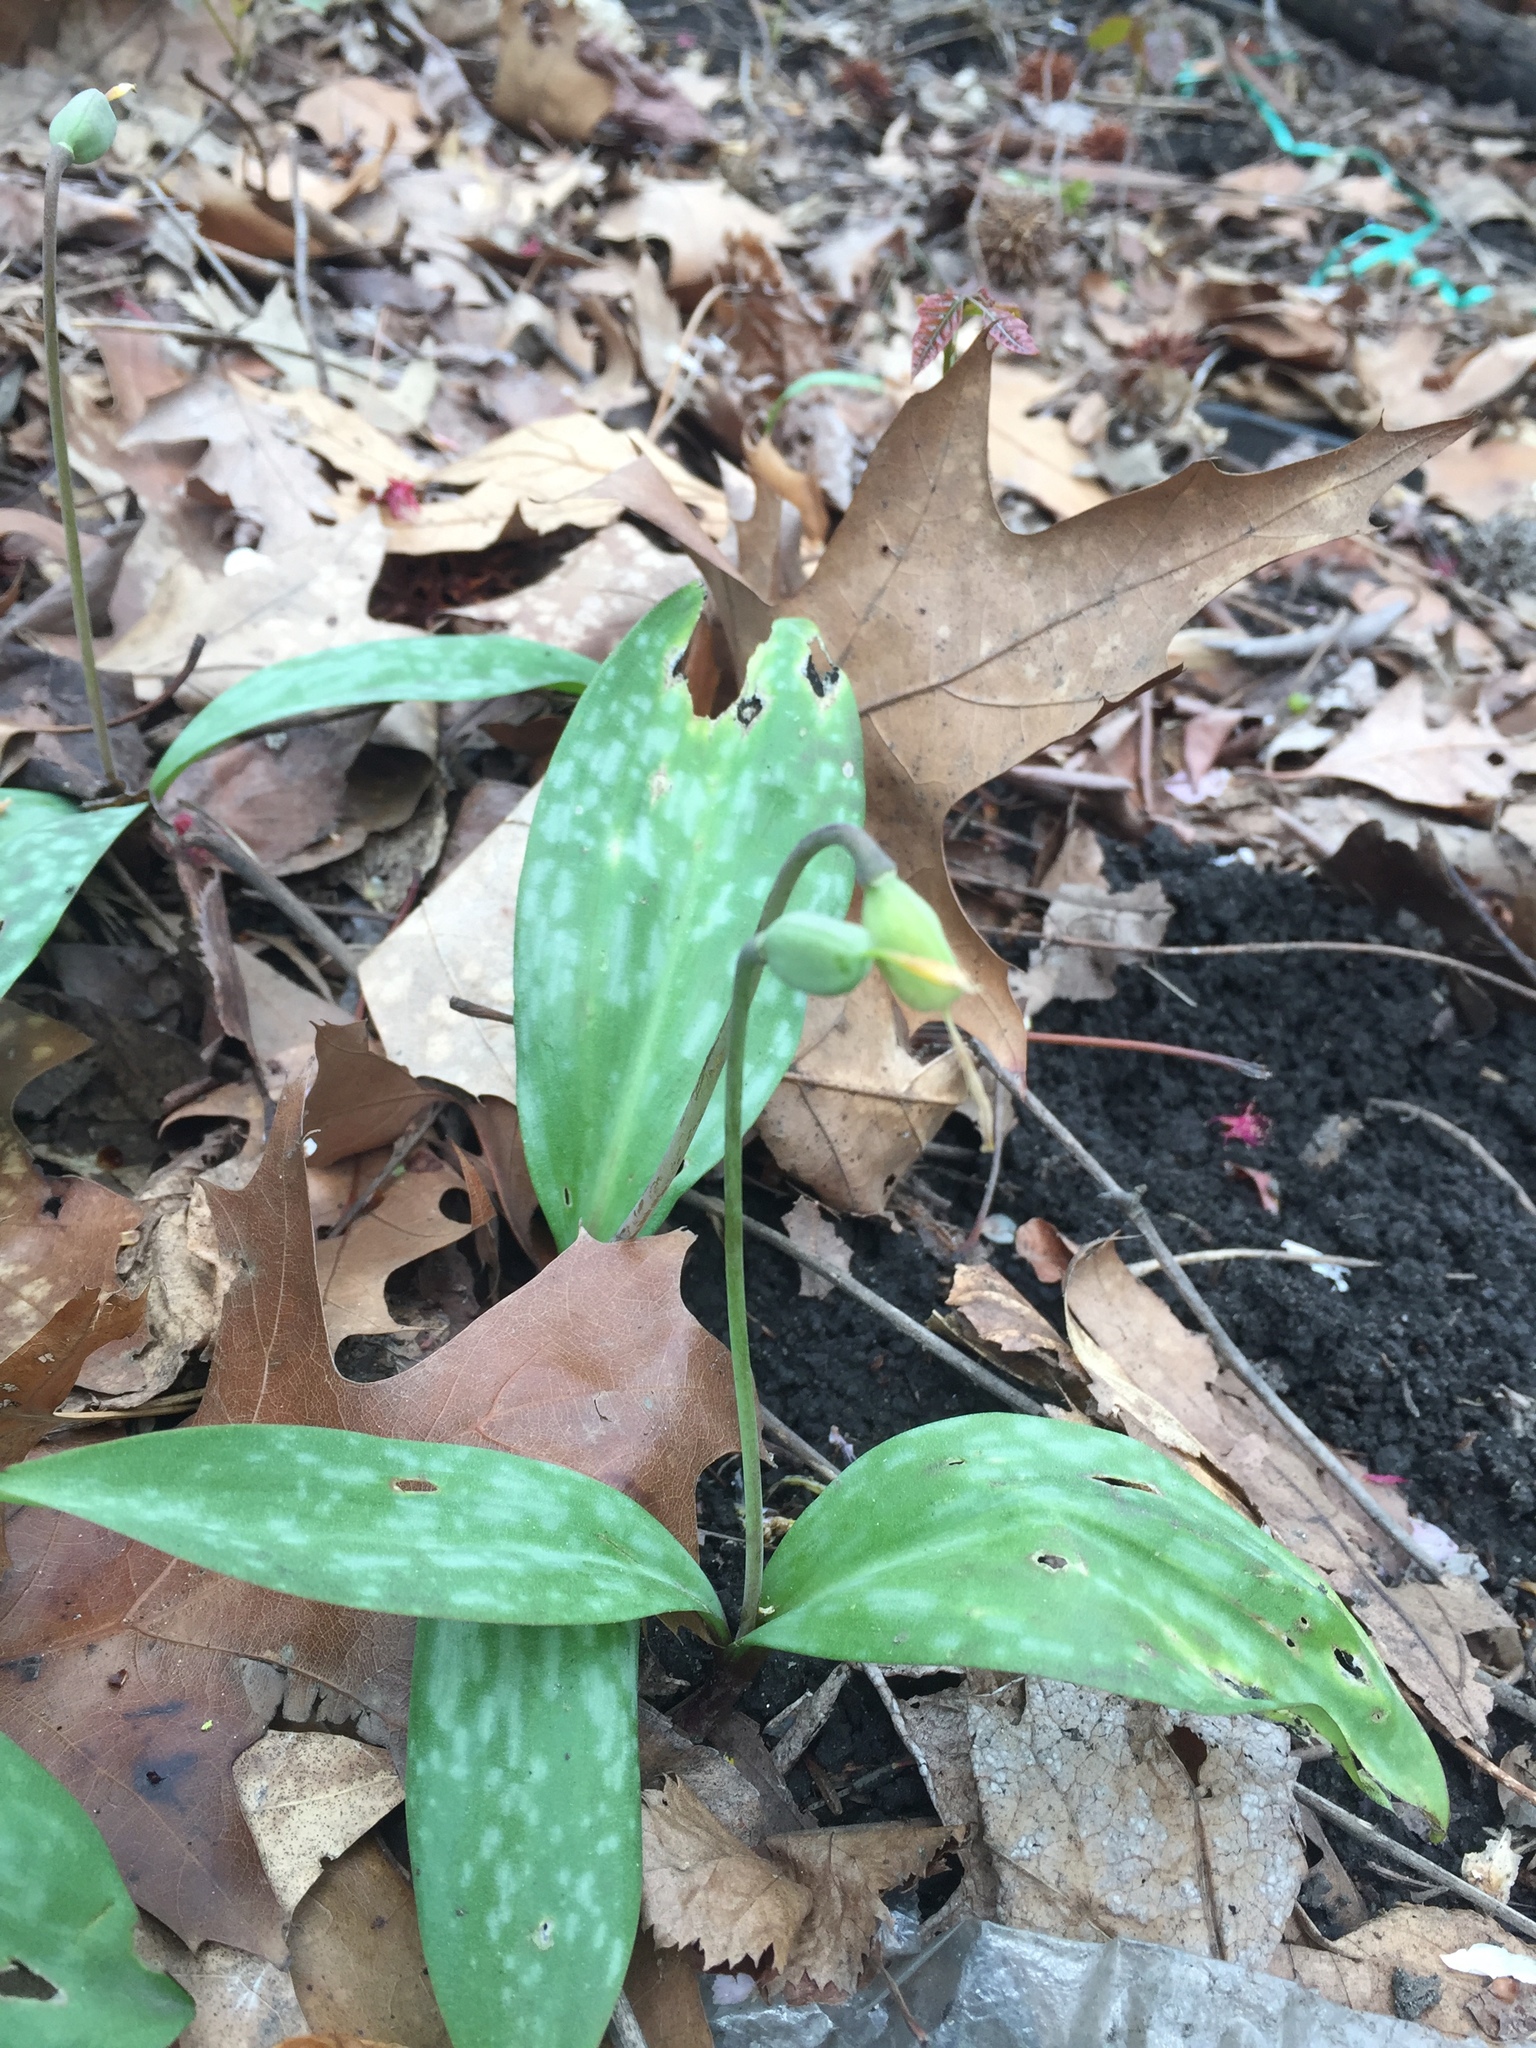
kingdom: Plantae
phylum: Tracheophyta
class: Liliopsida
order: Liliales
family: Liliaceae
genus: Erythronium
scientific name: Erythronium americanum
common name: Yellow adder's-tongue
